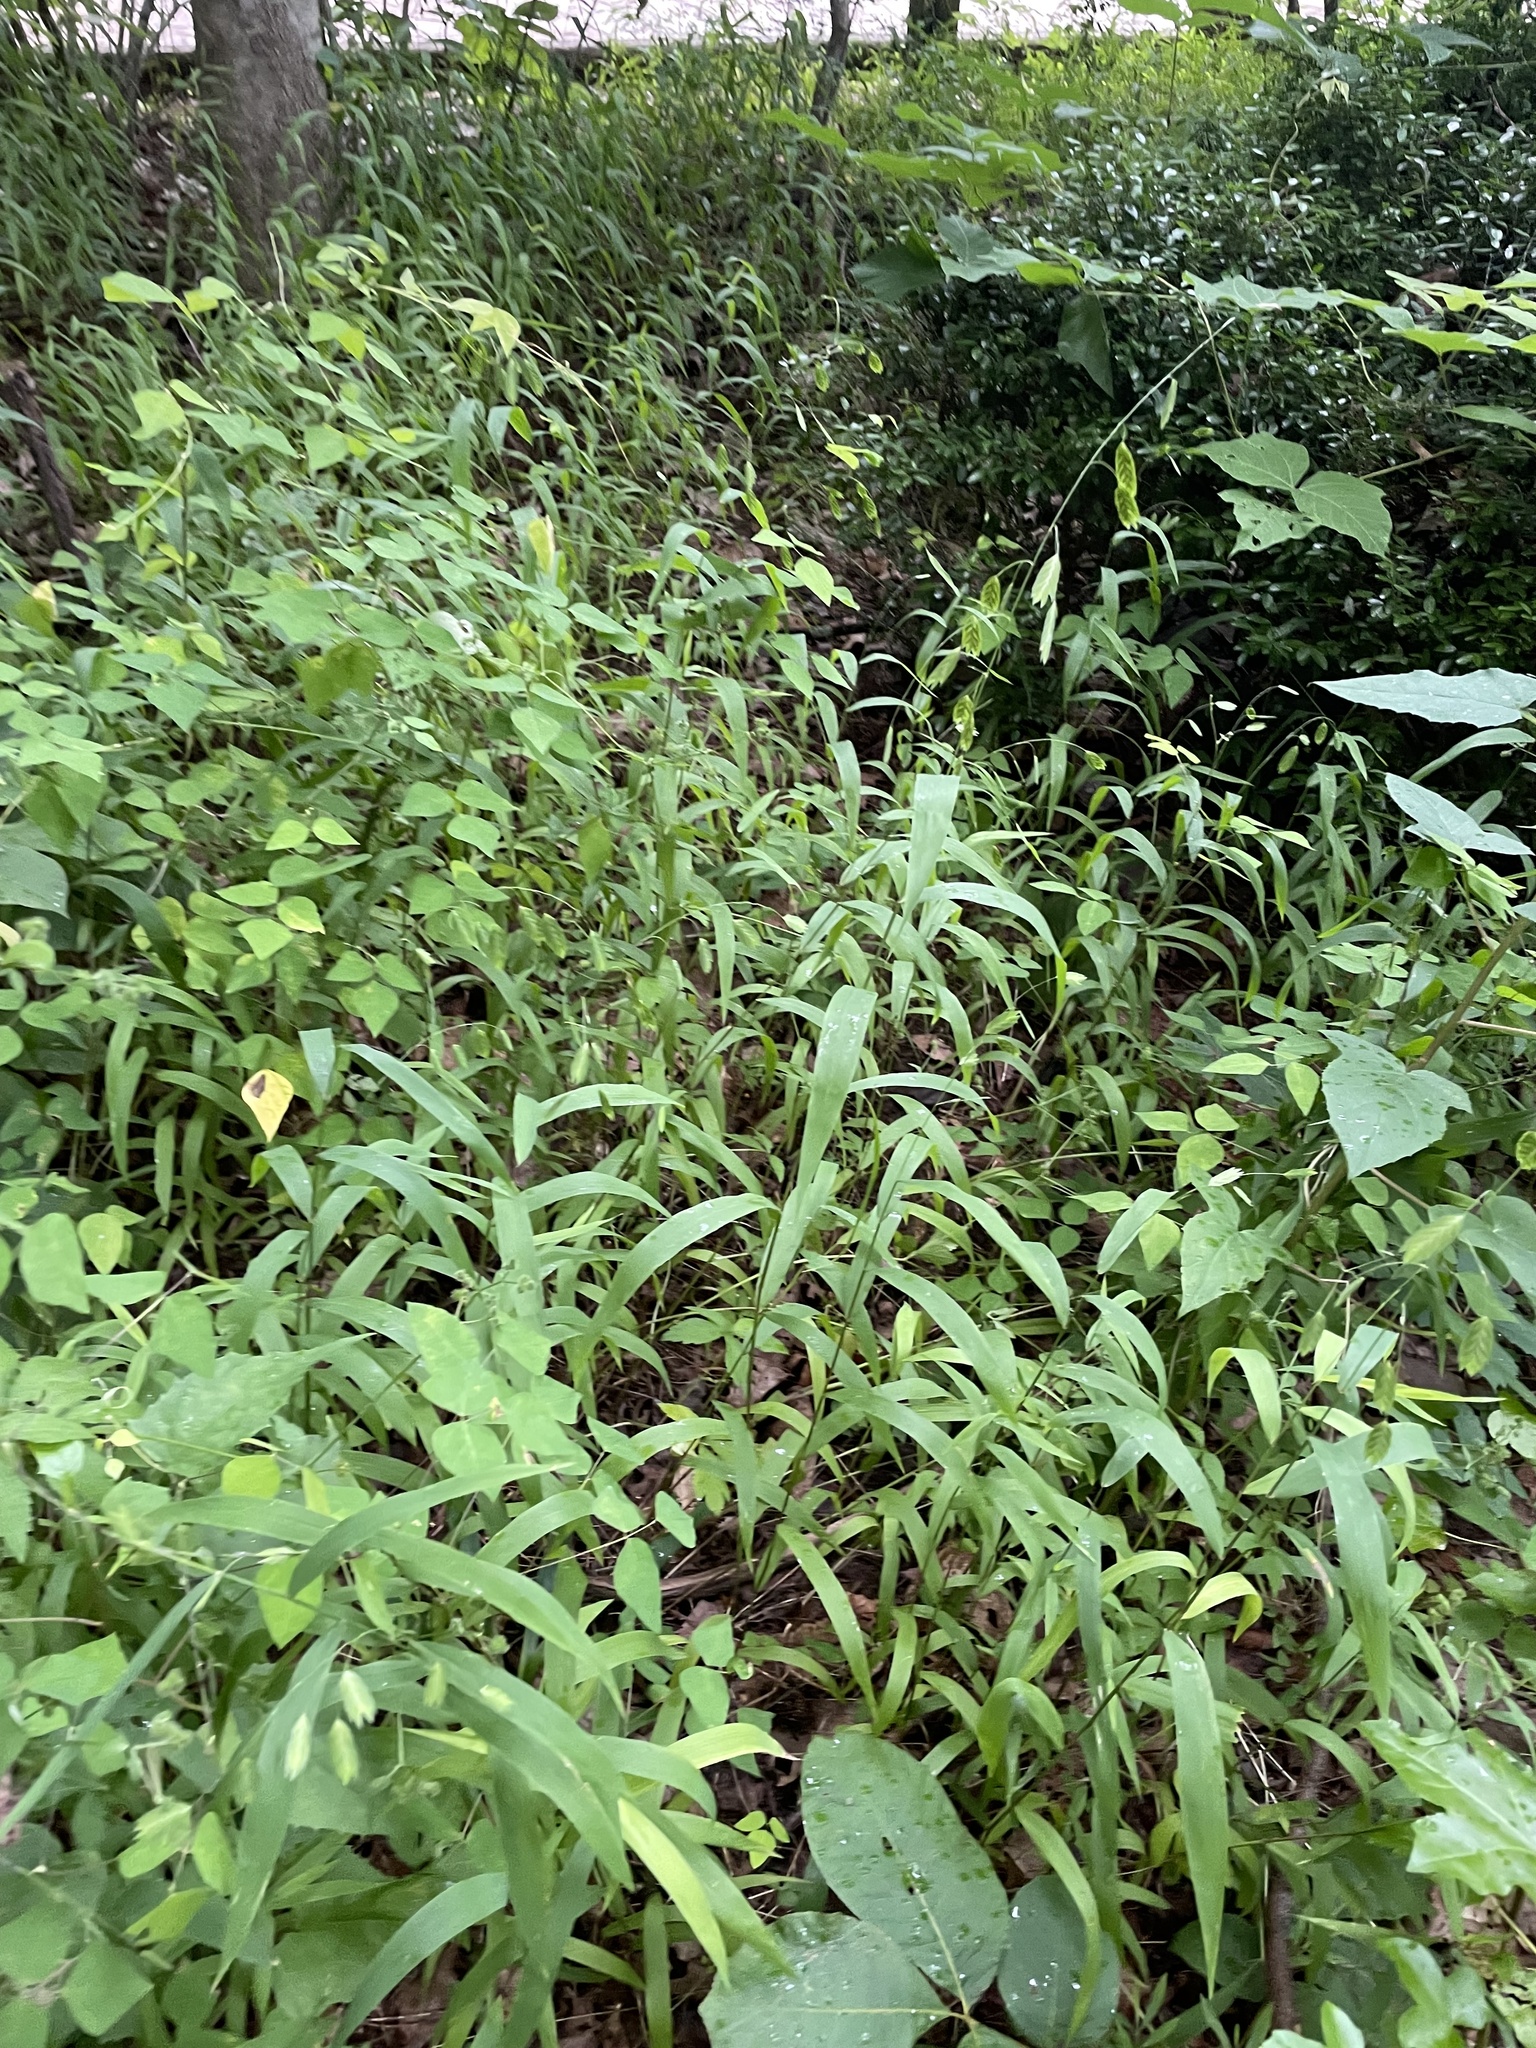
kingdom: Plantae
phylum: Tracheophyta
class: Liliopsida
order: Poales
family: Poaceae
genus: Chasmanthium
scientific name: Chasmanthium latifolium
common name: Broad-leaved chasmanthium
